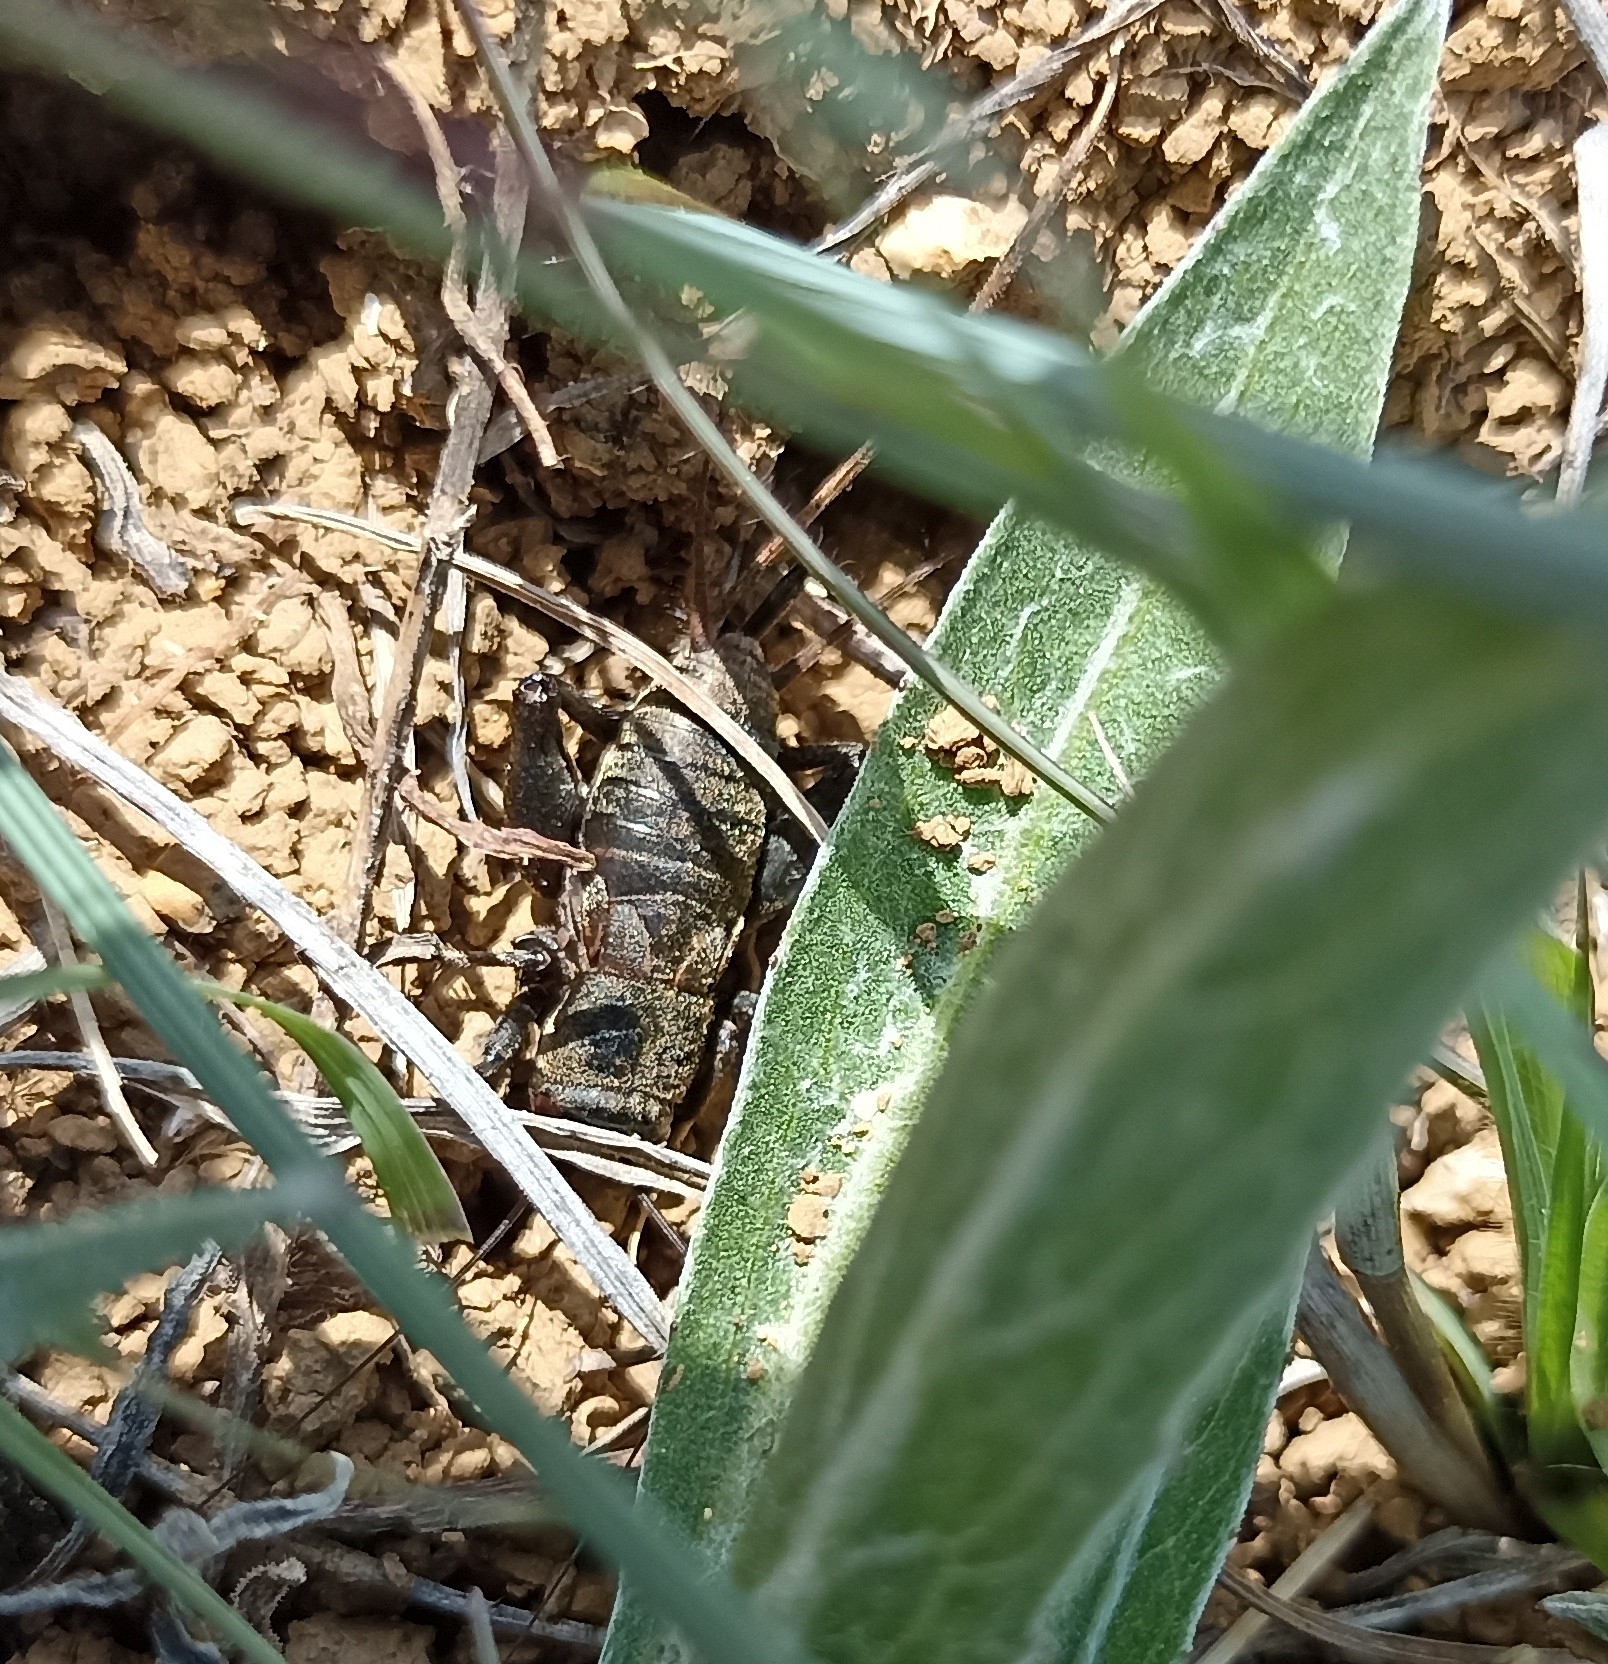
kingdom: Animalia
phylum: Arthropoda
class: Insecta
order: Orthoptera
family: Gryllidae
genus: Melanogryllus
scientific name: Melanogryllus desertus
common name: Desert cricket
